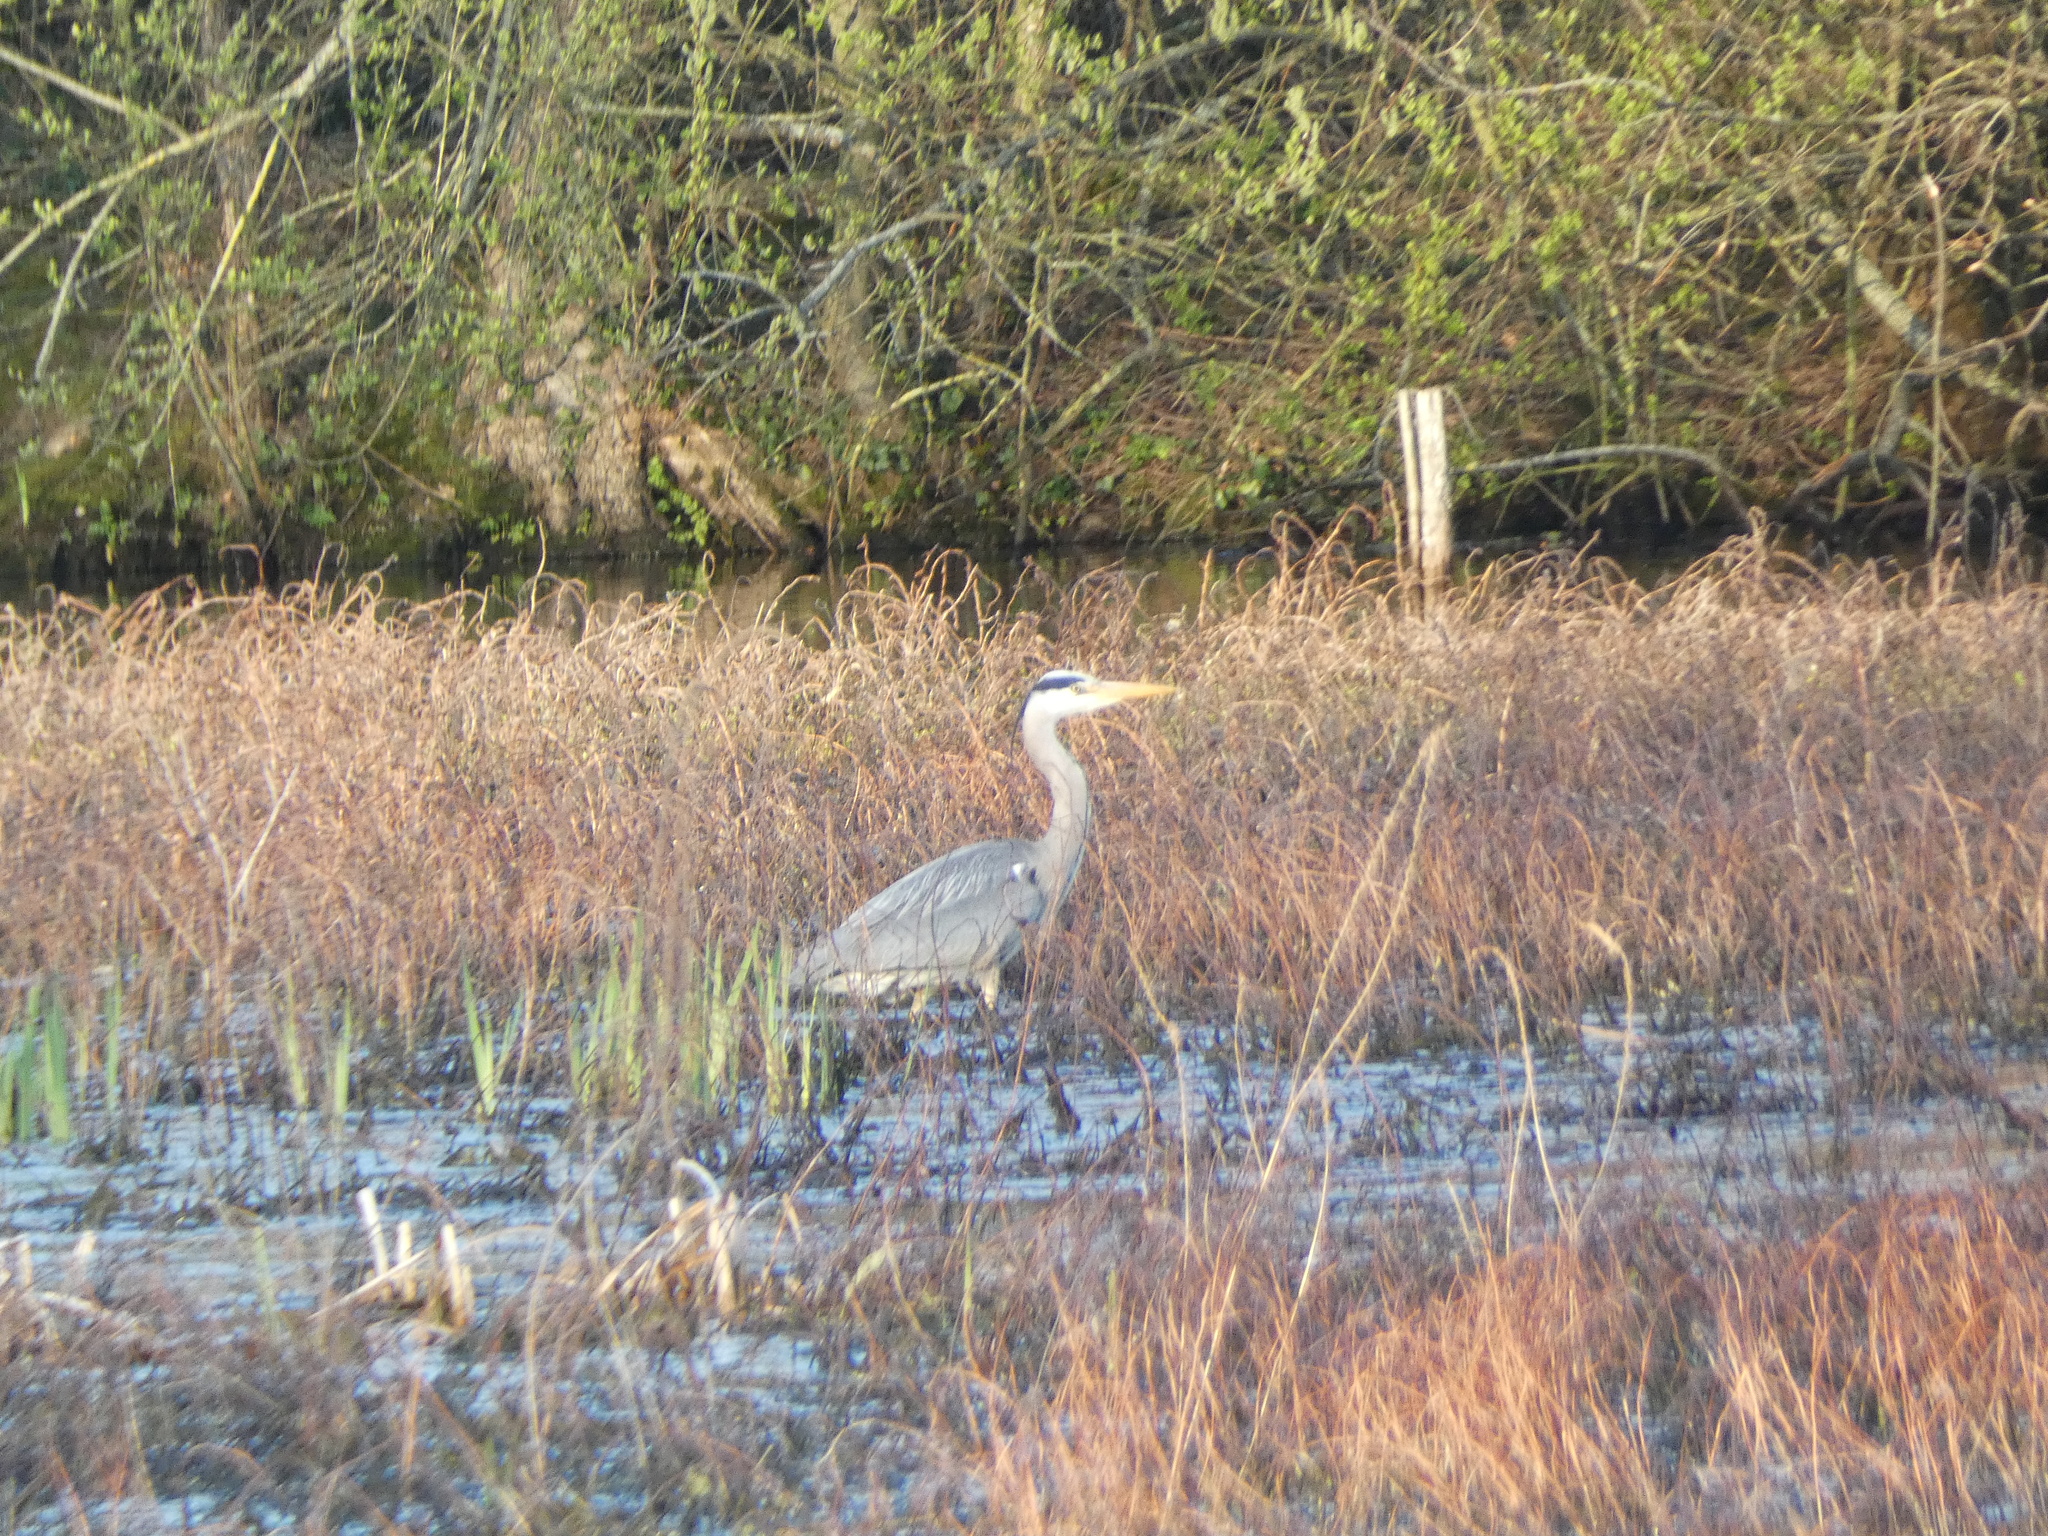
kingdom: Animalia
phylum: Chordata
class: Aves
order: Pelecaniformes
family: Ardeidae
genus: Ardea
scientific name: Ardea cinerea
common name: Grey heron
